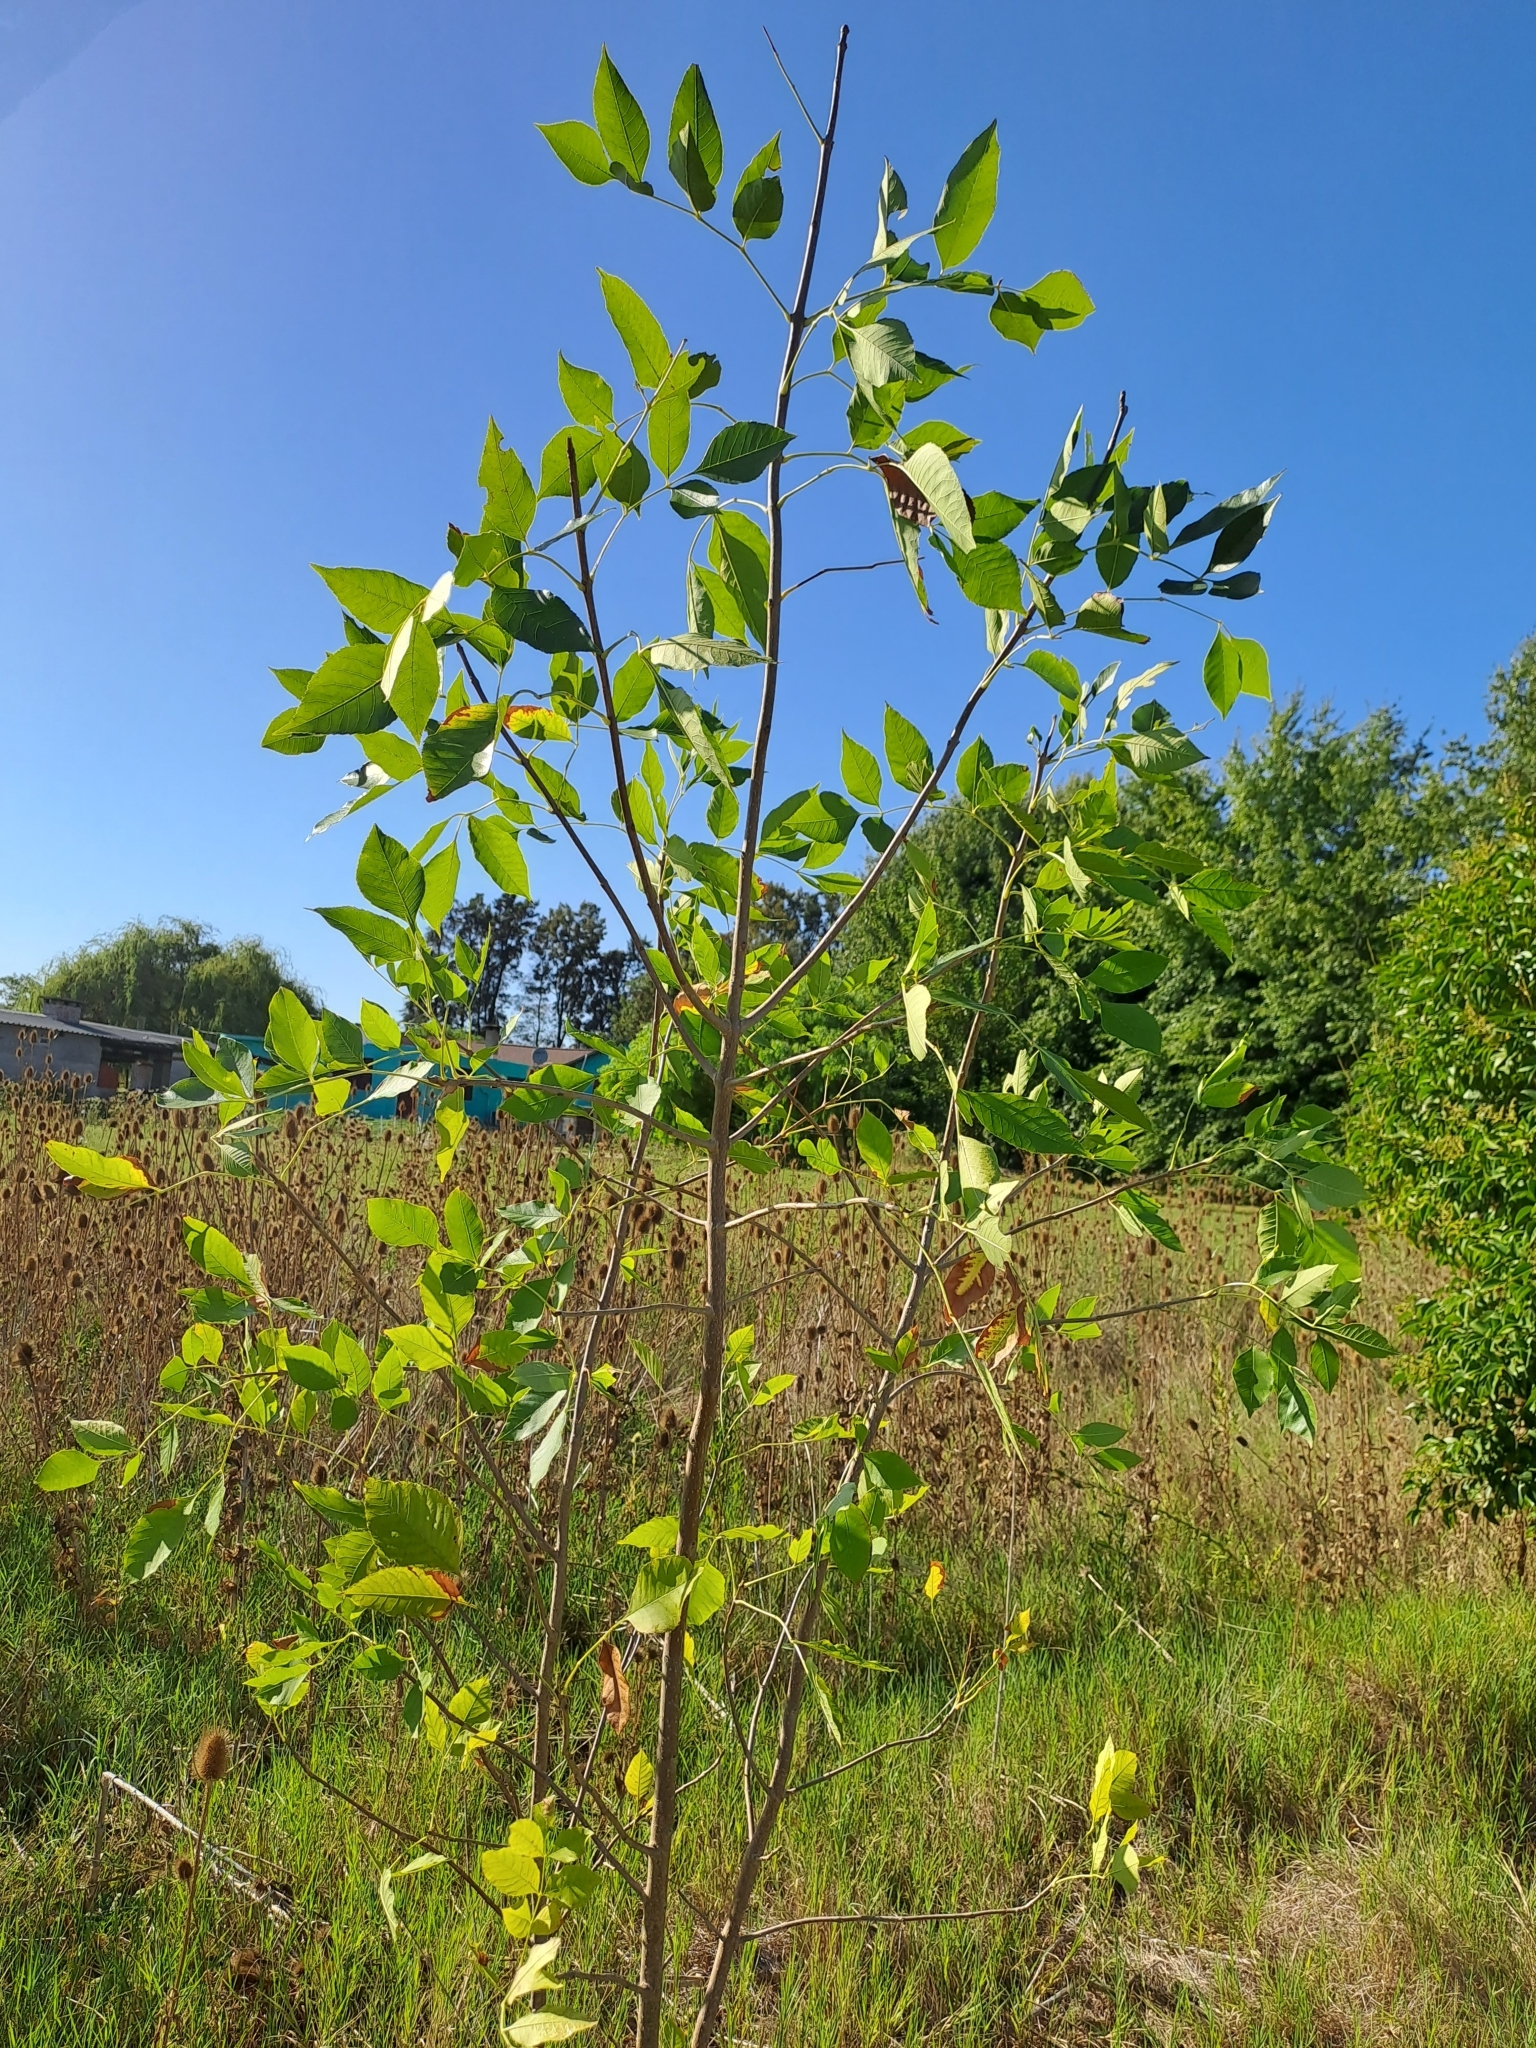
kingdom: Plantae
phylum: Tracheophyta
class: Magnoliopsida
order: Lamiales
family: Oleaceae
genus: Fraxinus
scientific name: Fraxinus pennsylvanica
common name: Green ash
